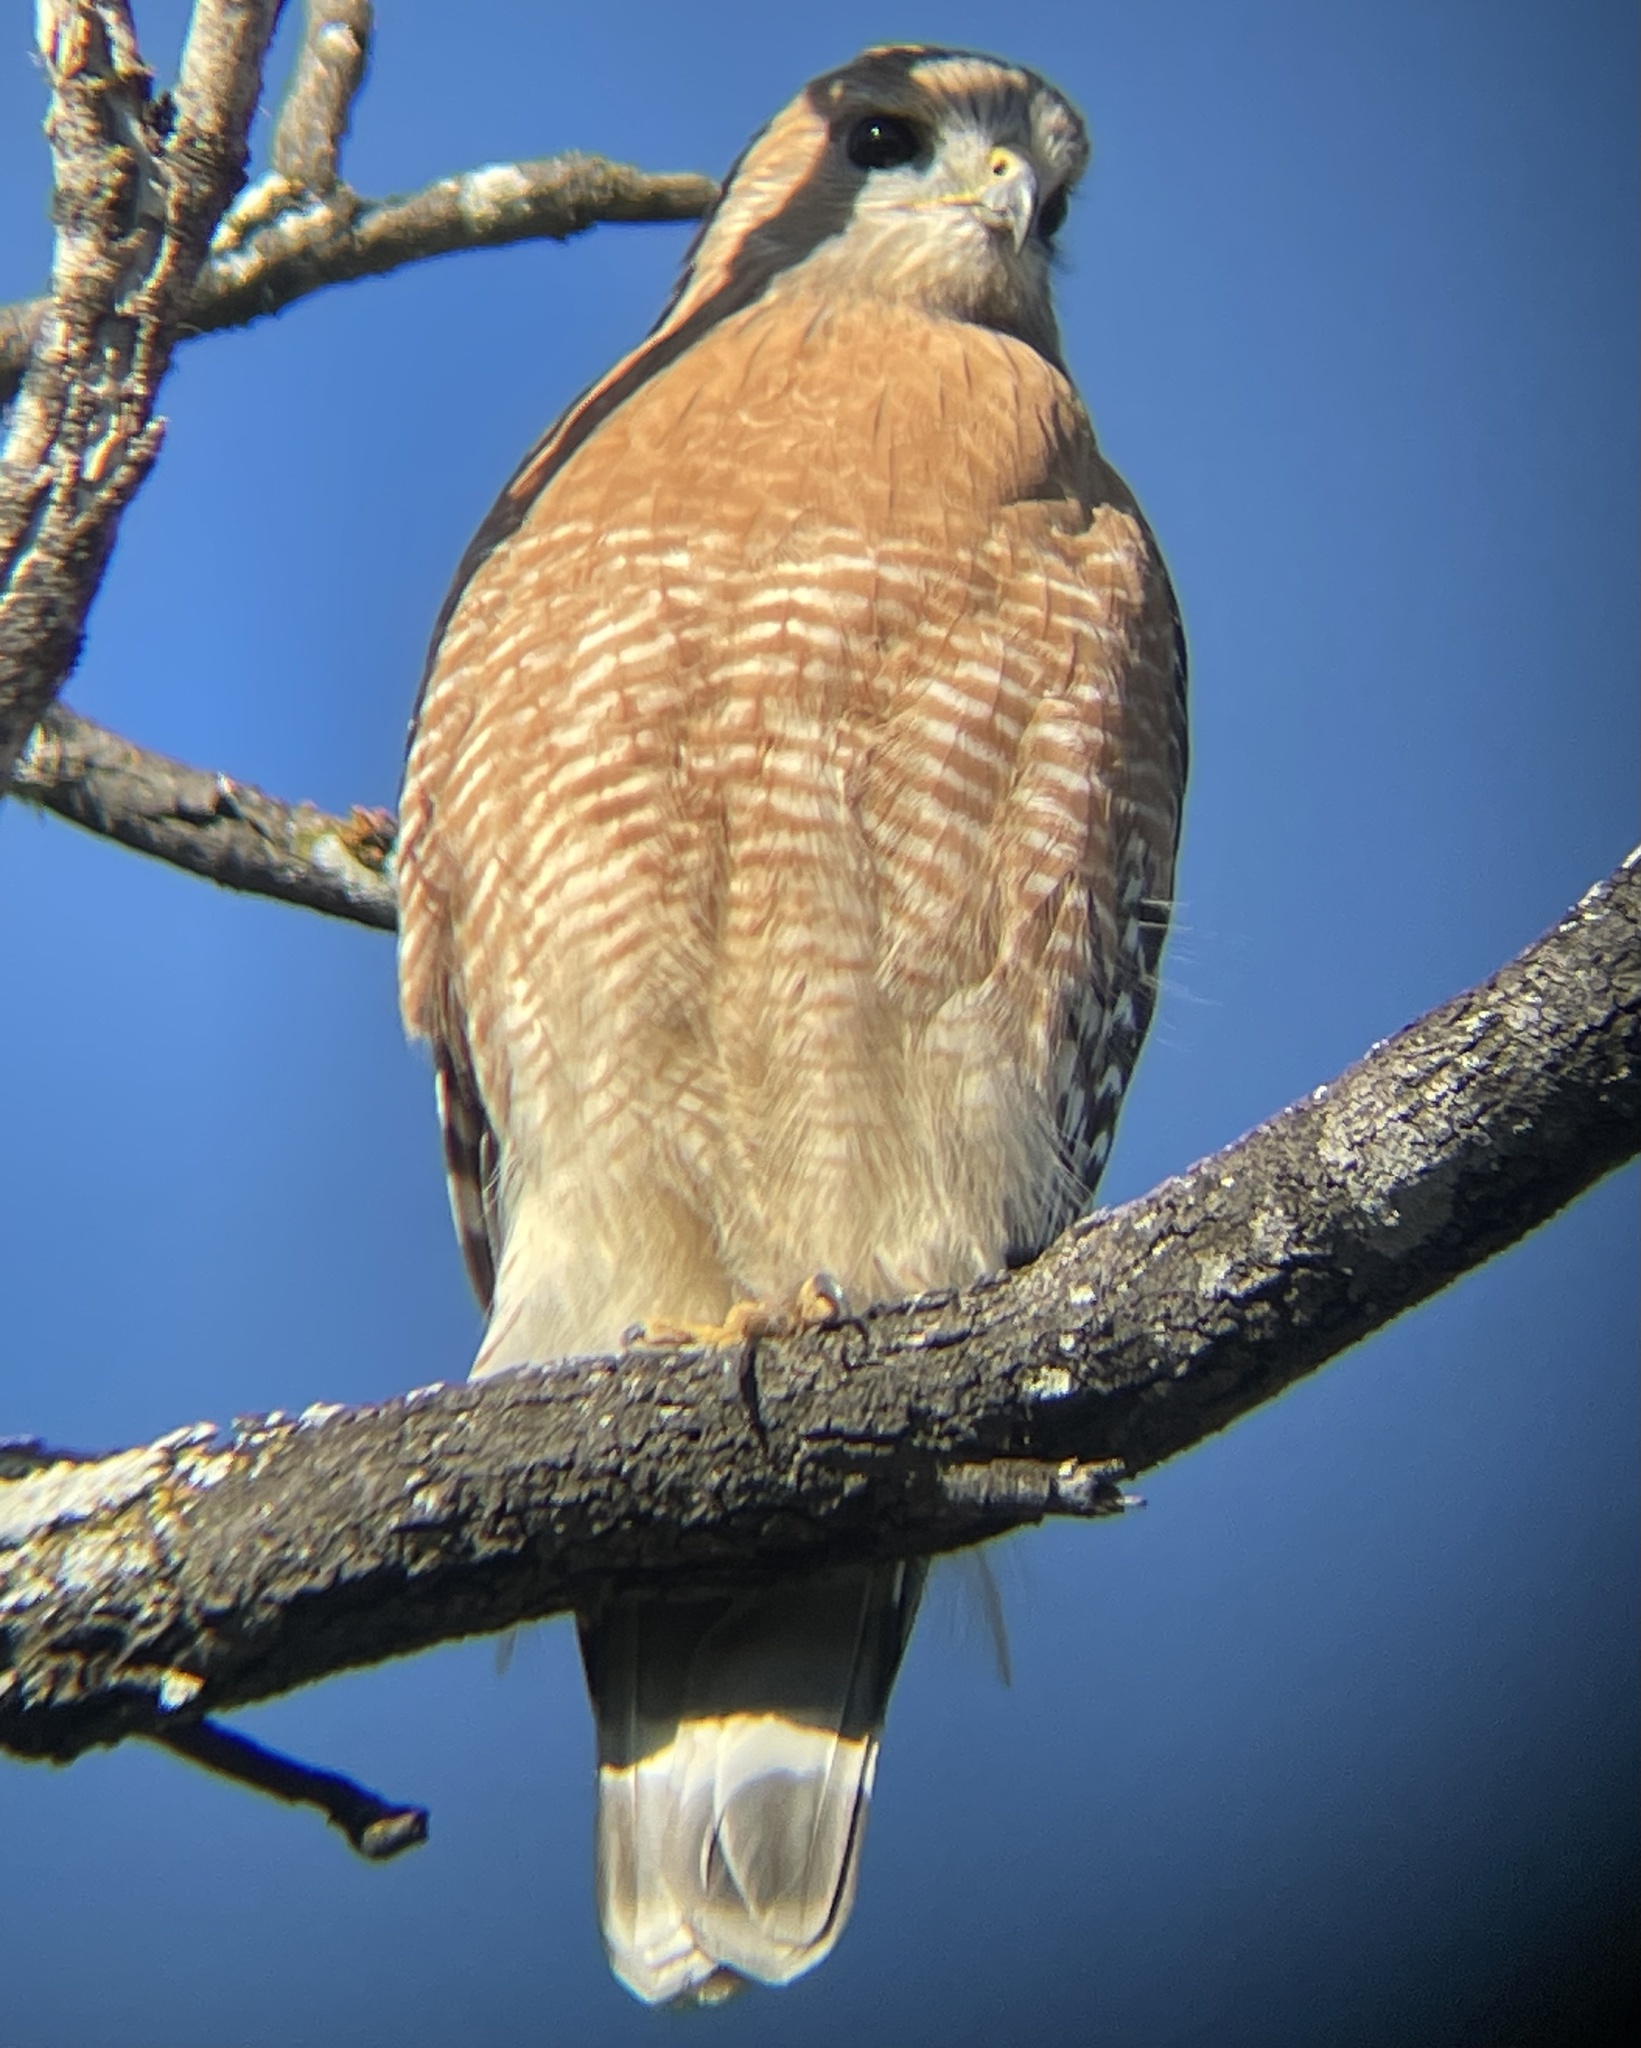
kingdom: Animalia
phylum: Chordata
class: Aves
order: Accipitriformes
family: Accipitridae
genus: Buteo
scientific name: Buteo lineatus
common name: Red-shouldered hawk
